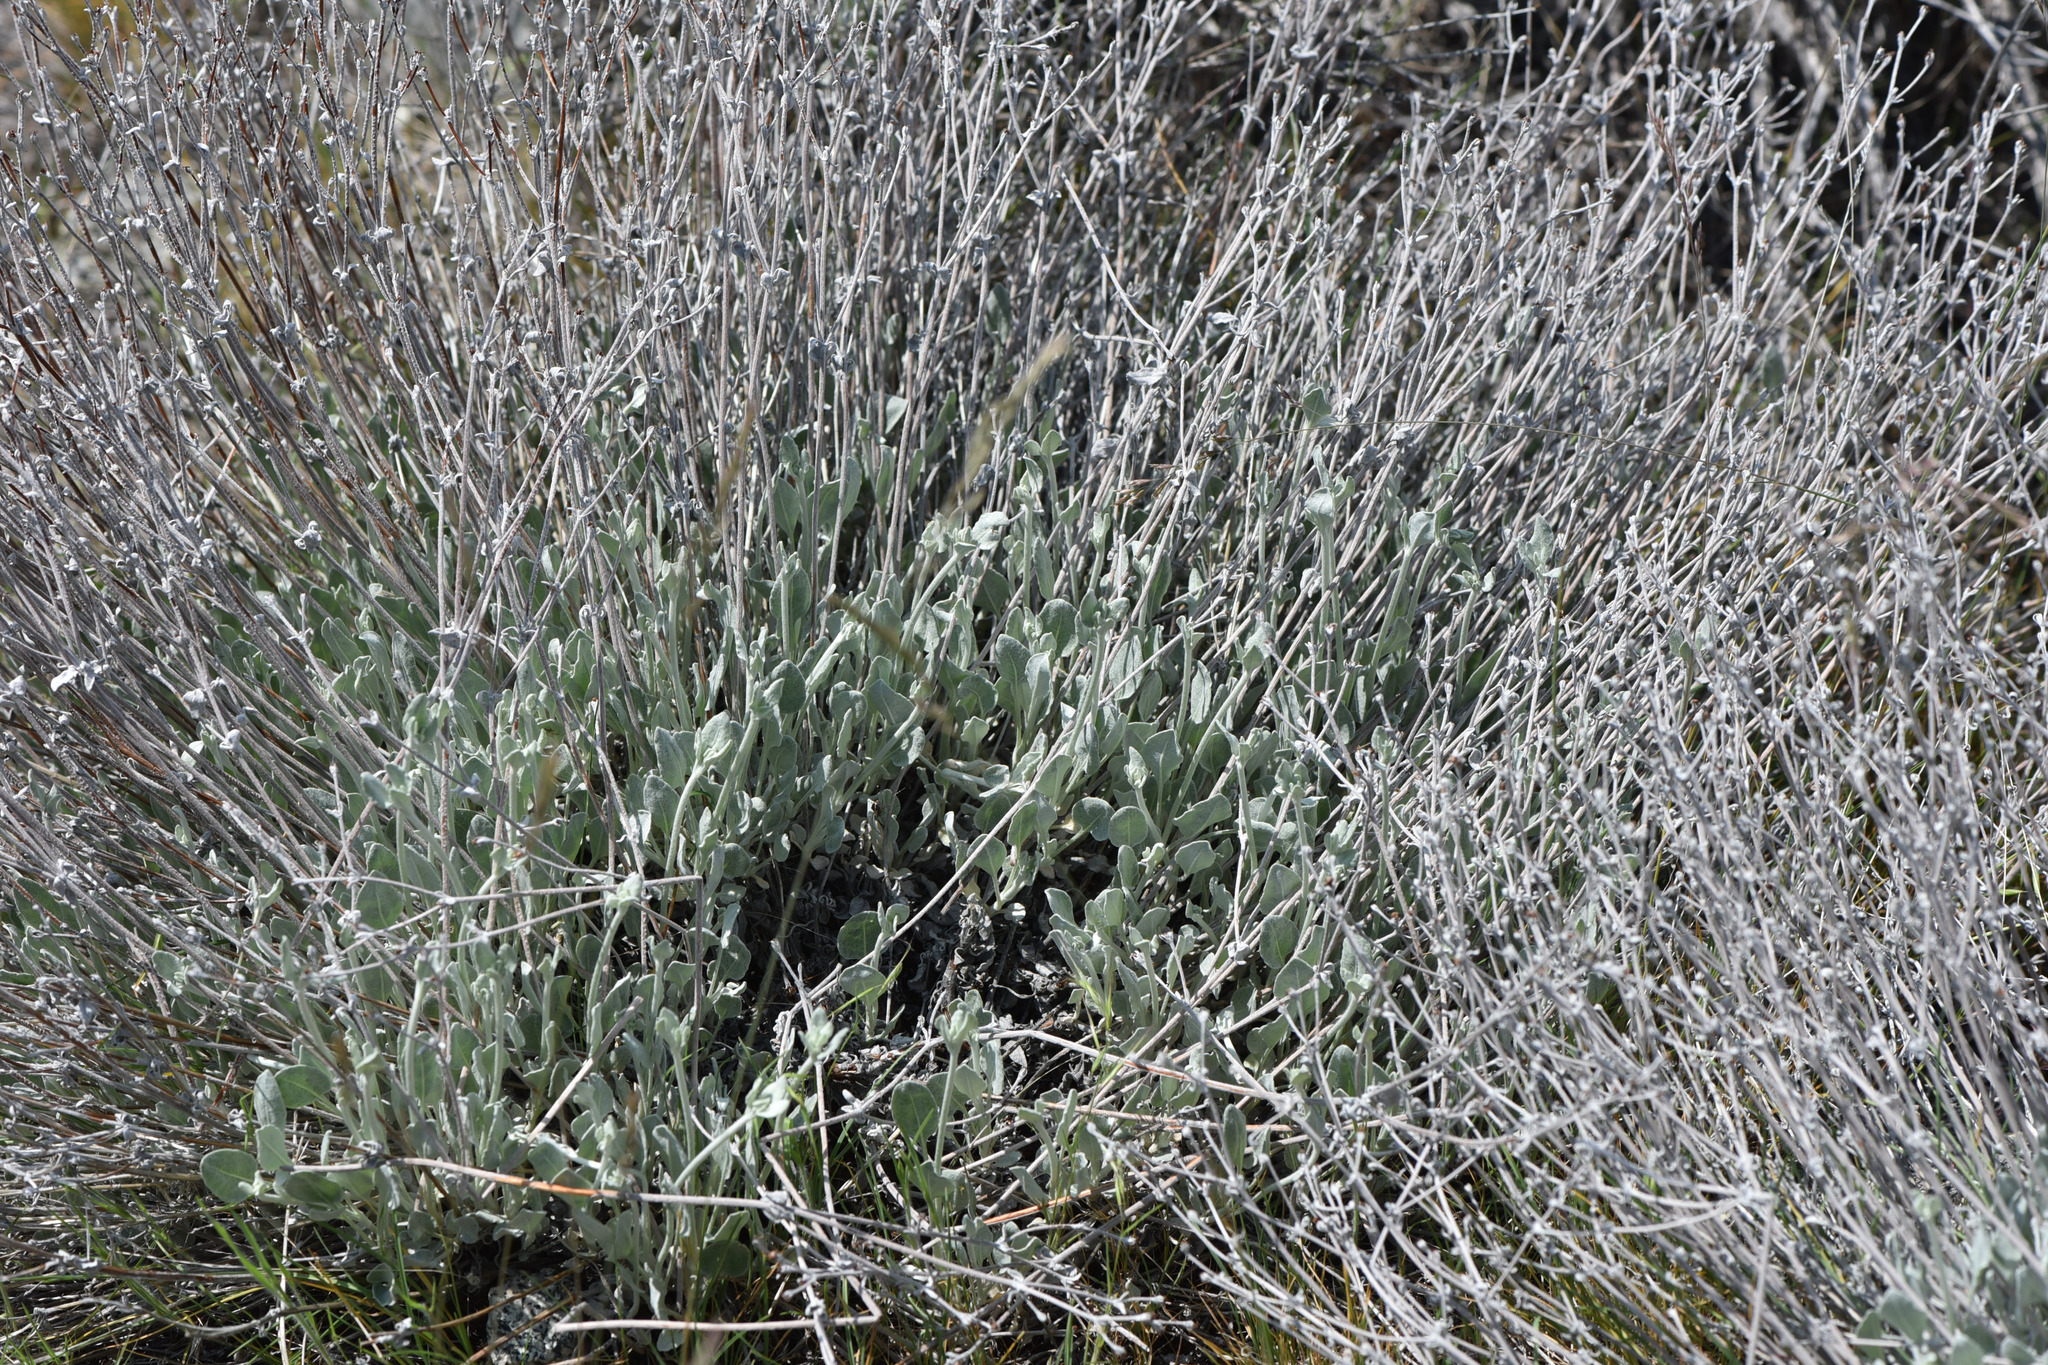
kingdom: Plantae
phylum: Tracheophyta
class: Magnoliopsida
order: Caryophyllales
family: Polygonaceae
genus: Eriogonum
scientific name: Eriogonum niveum
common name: Snow wild buckwheat
